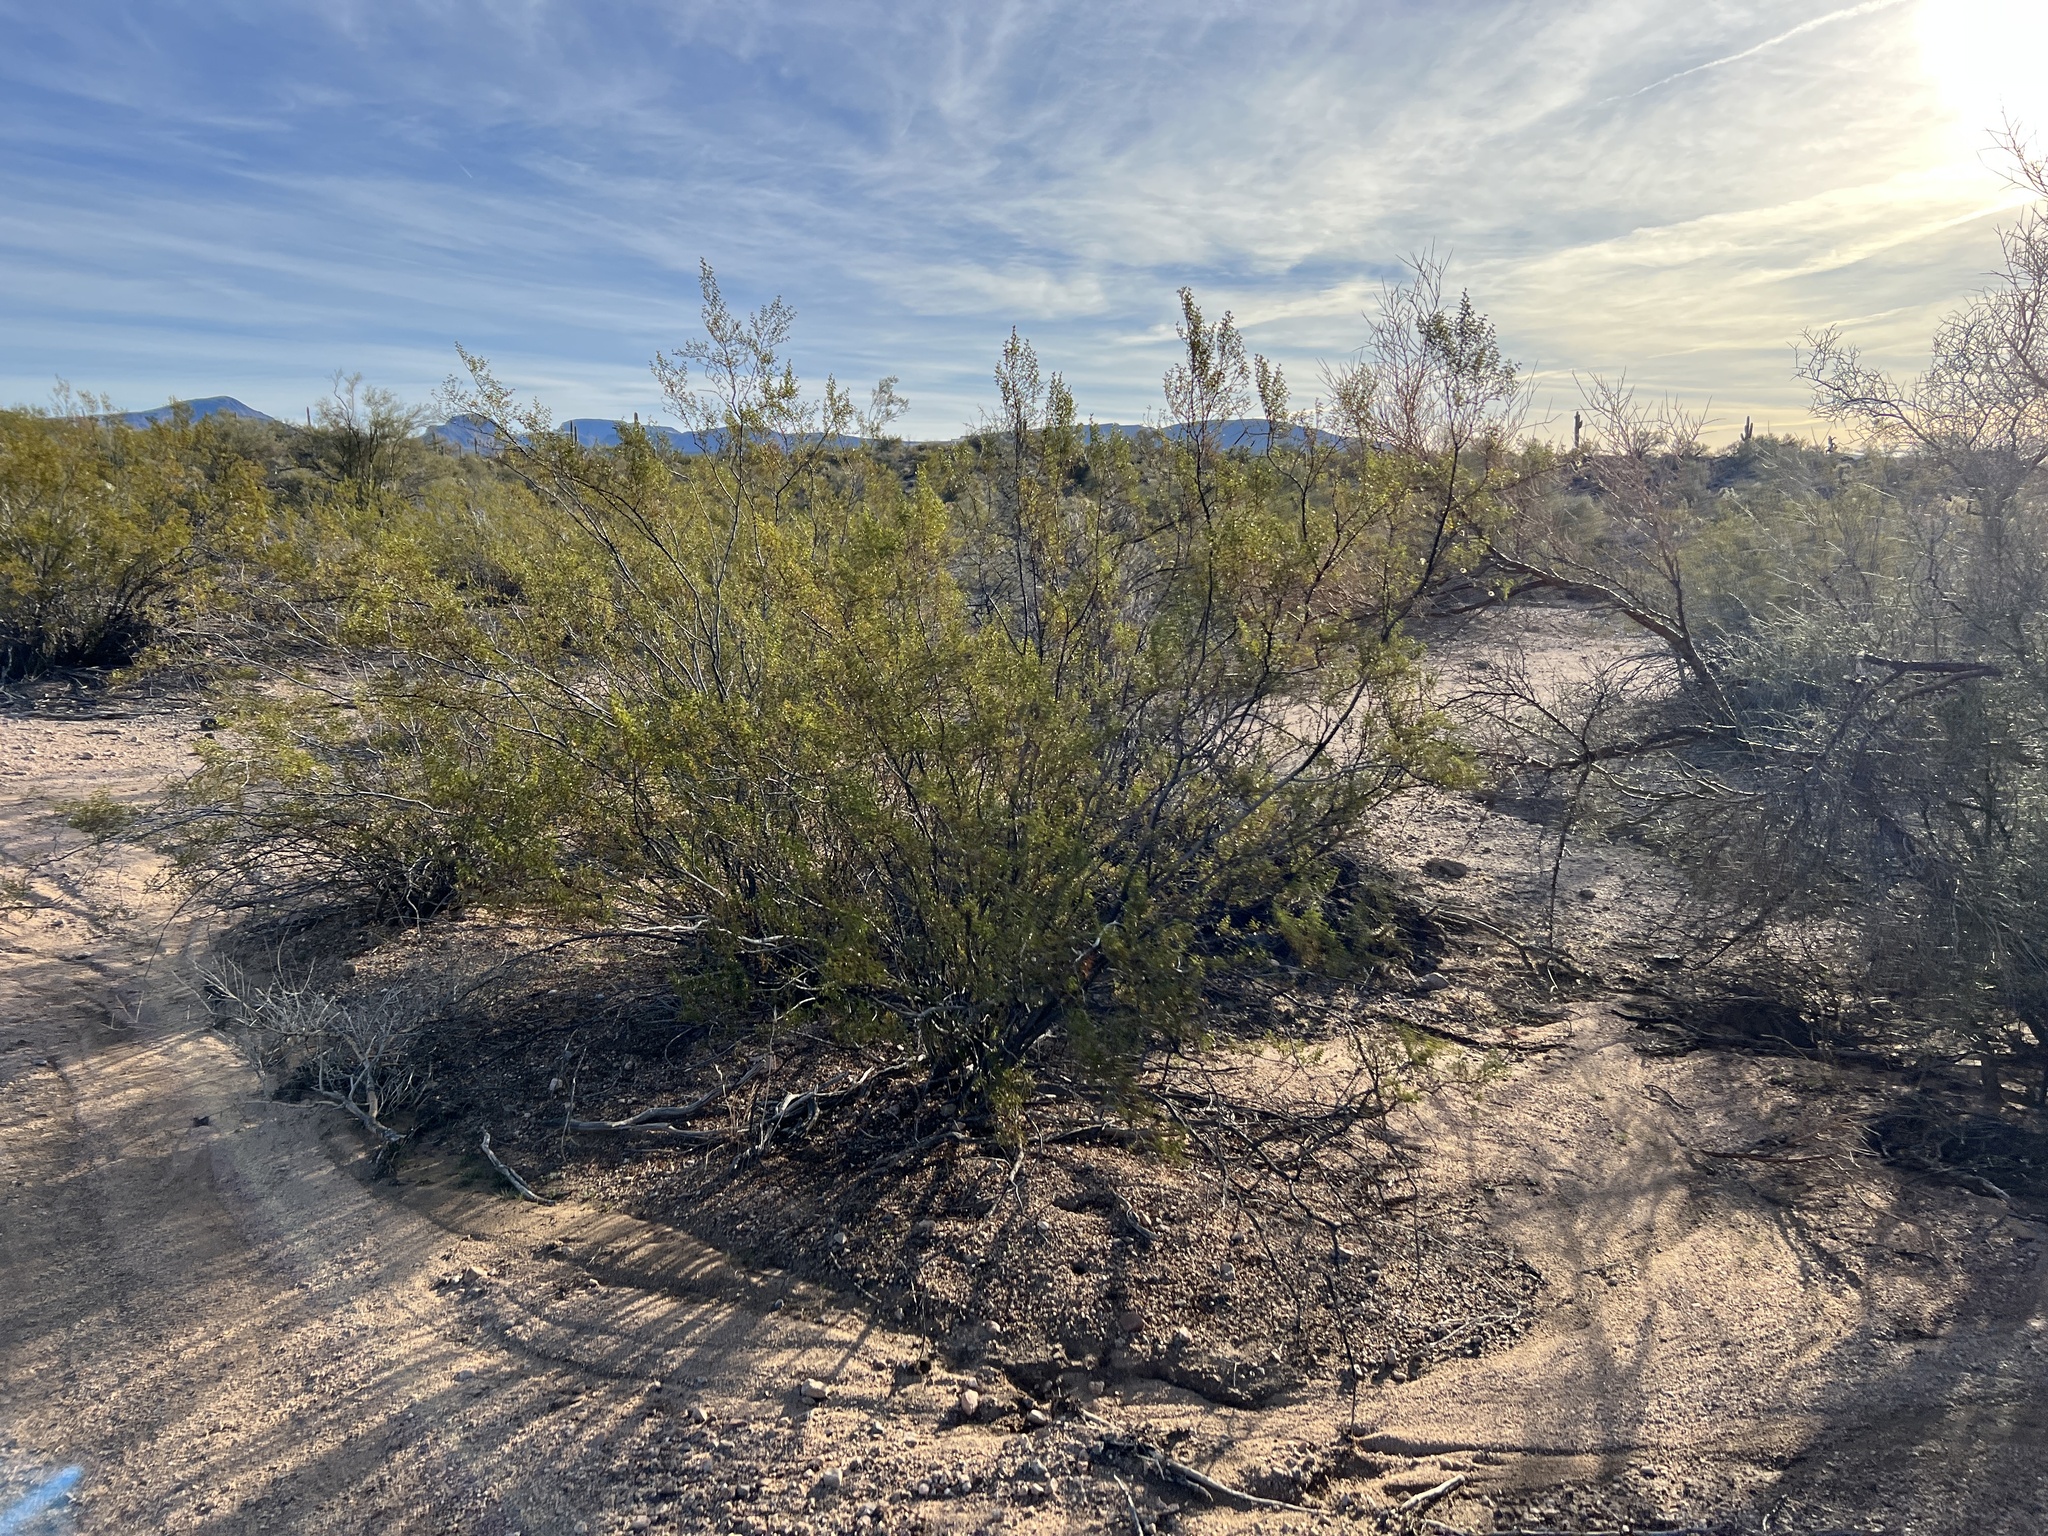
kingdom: Plantae
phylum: Tracheophyta
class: Magnoliopsida
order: Zygophyllales
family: Zygophyllaceae
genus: Larrea
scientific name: Larrea tridentata
